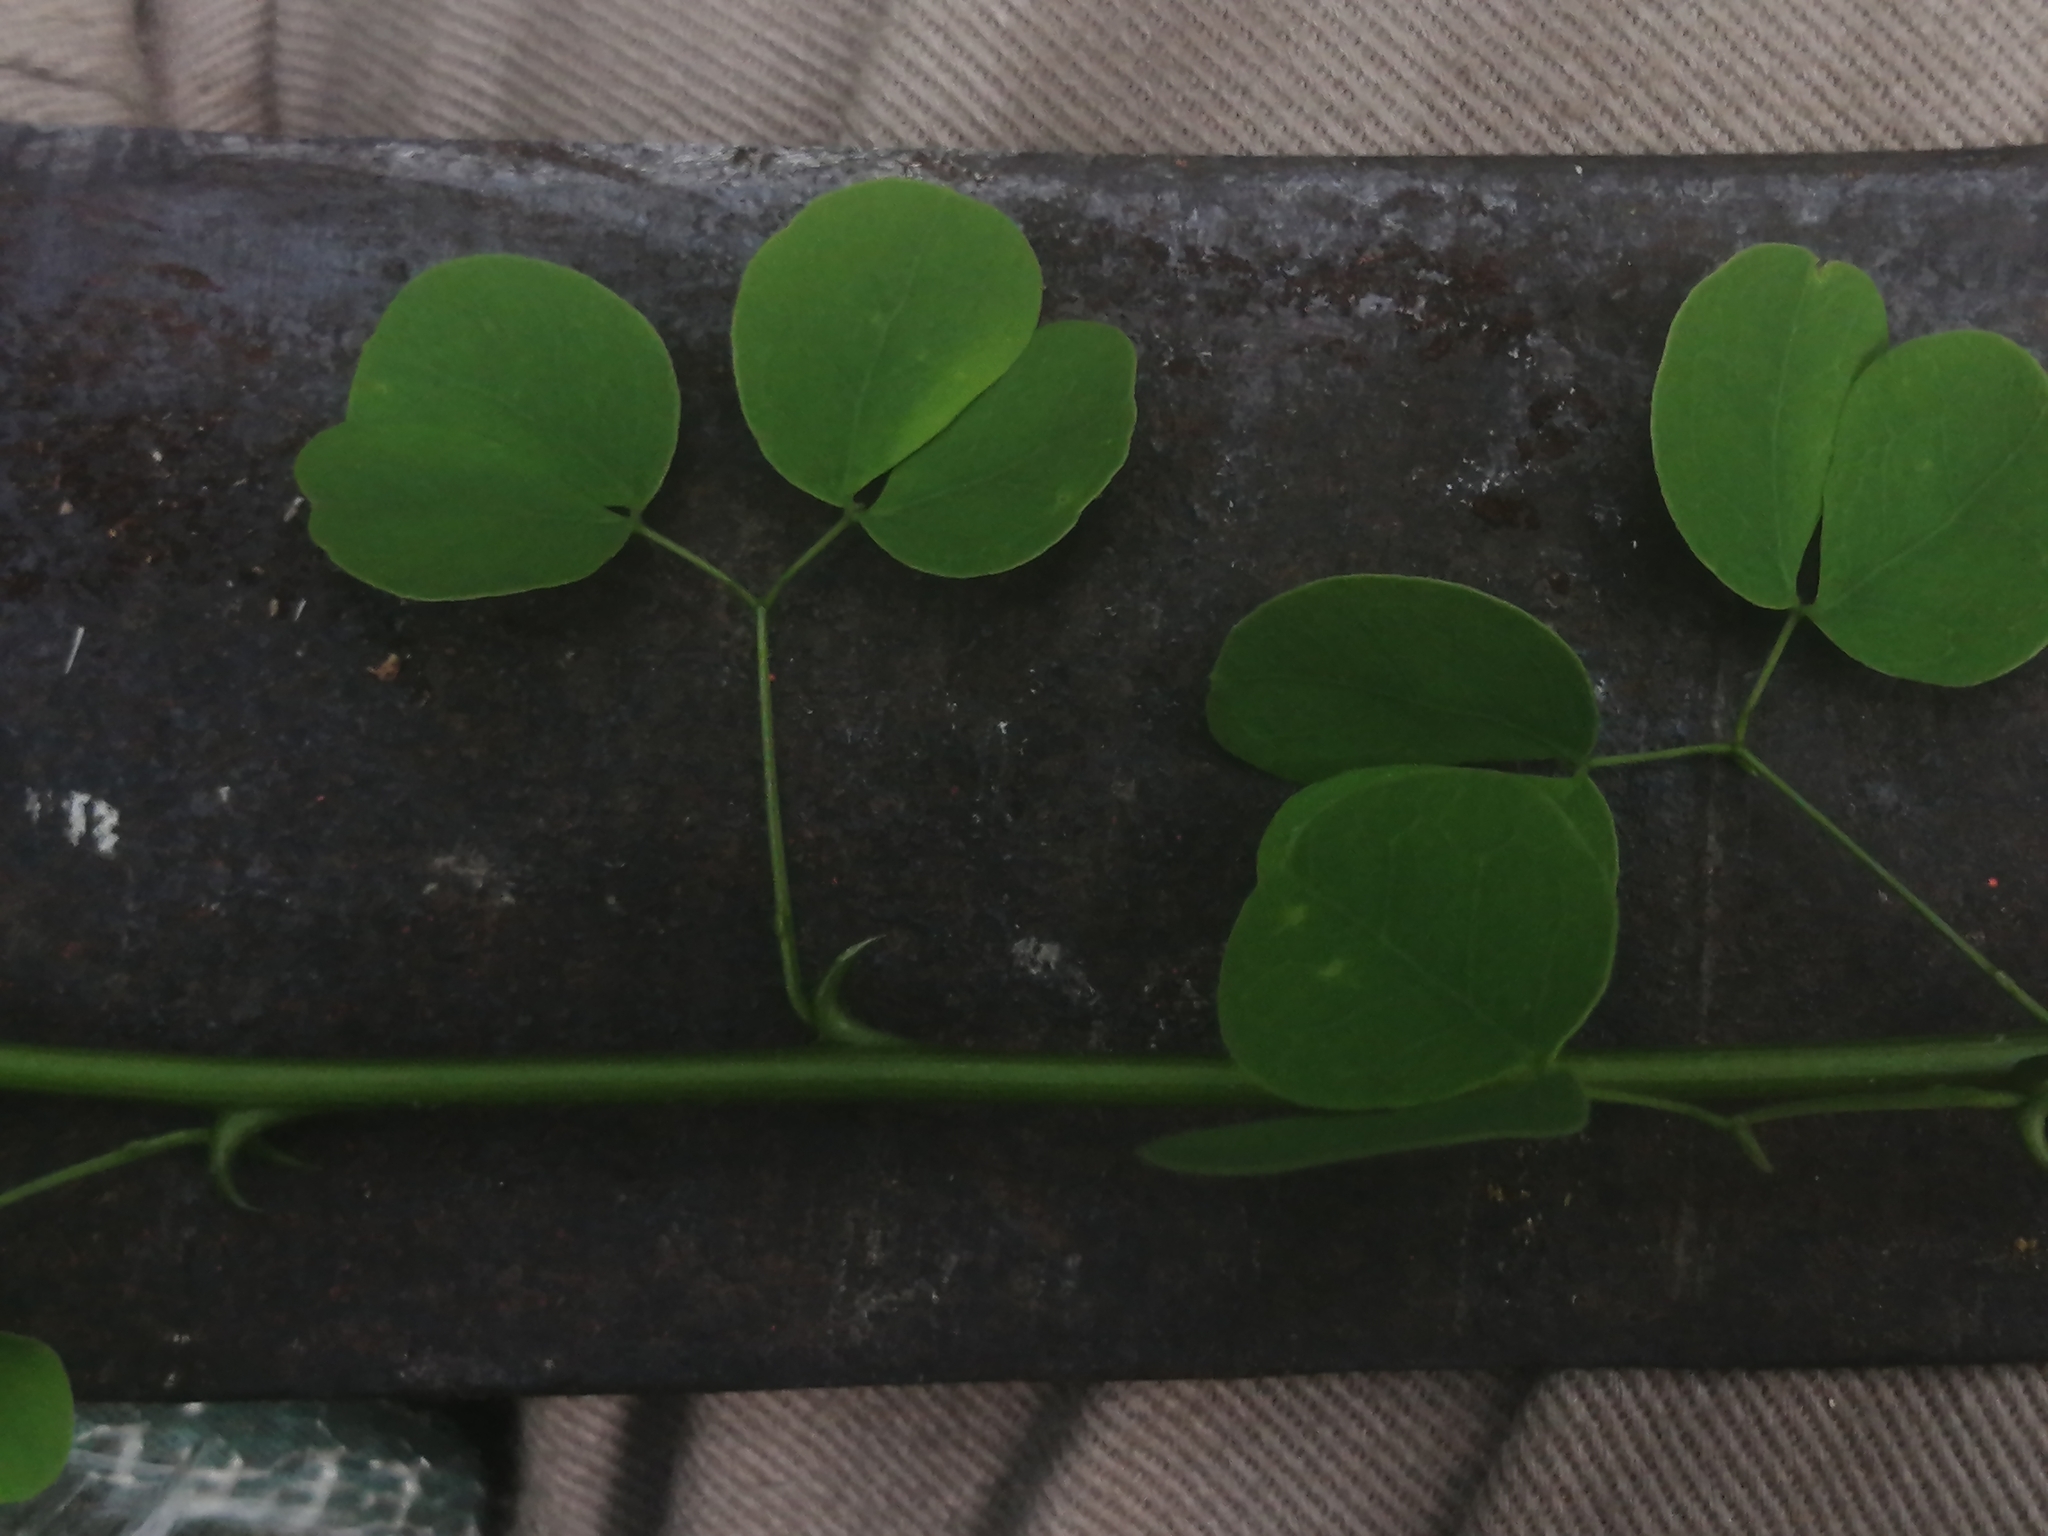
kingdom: Plantae
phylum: Tracheophyta
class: Magnoliopsida
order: Fabales
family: Fabaceae
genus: Pithecellobium
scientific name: Pithecellobium dulce
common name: Monkeypod
